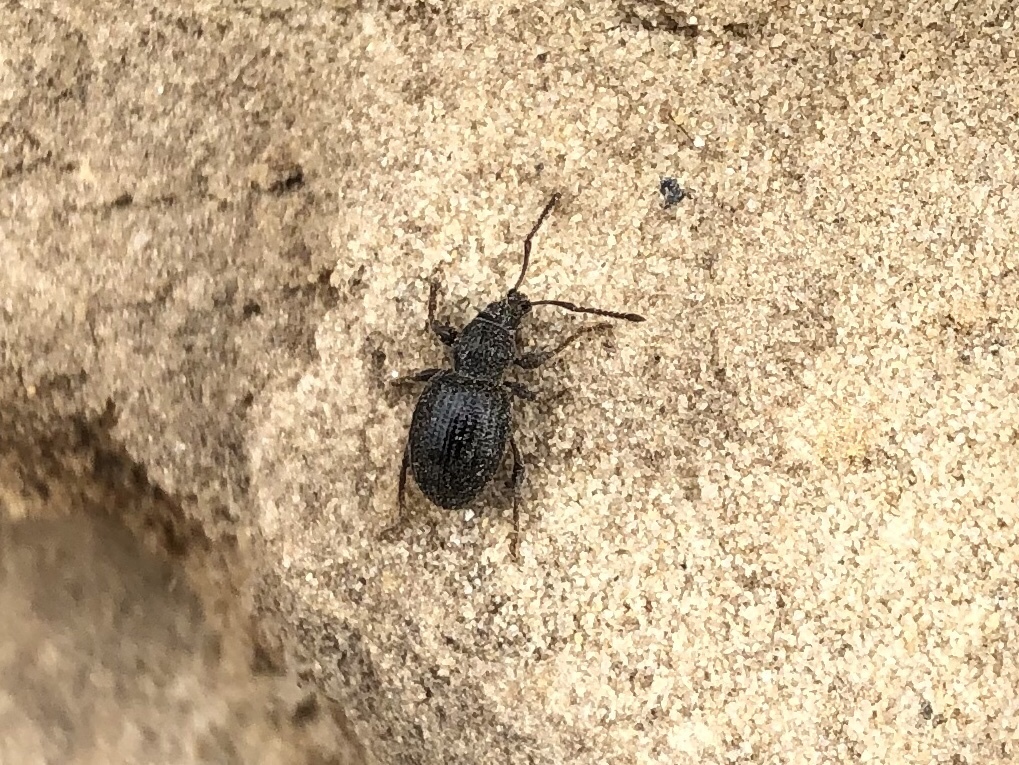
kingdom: Animalia
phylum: Arthropoda
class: Insecta
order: Coleoptera
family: Curculionidae
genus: Otiorhynchus
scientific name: Otiorhynchus ovatus
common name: Strawberry root weevil
